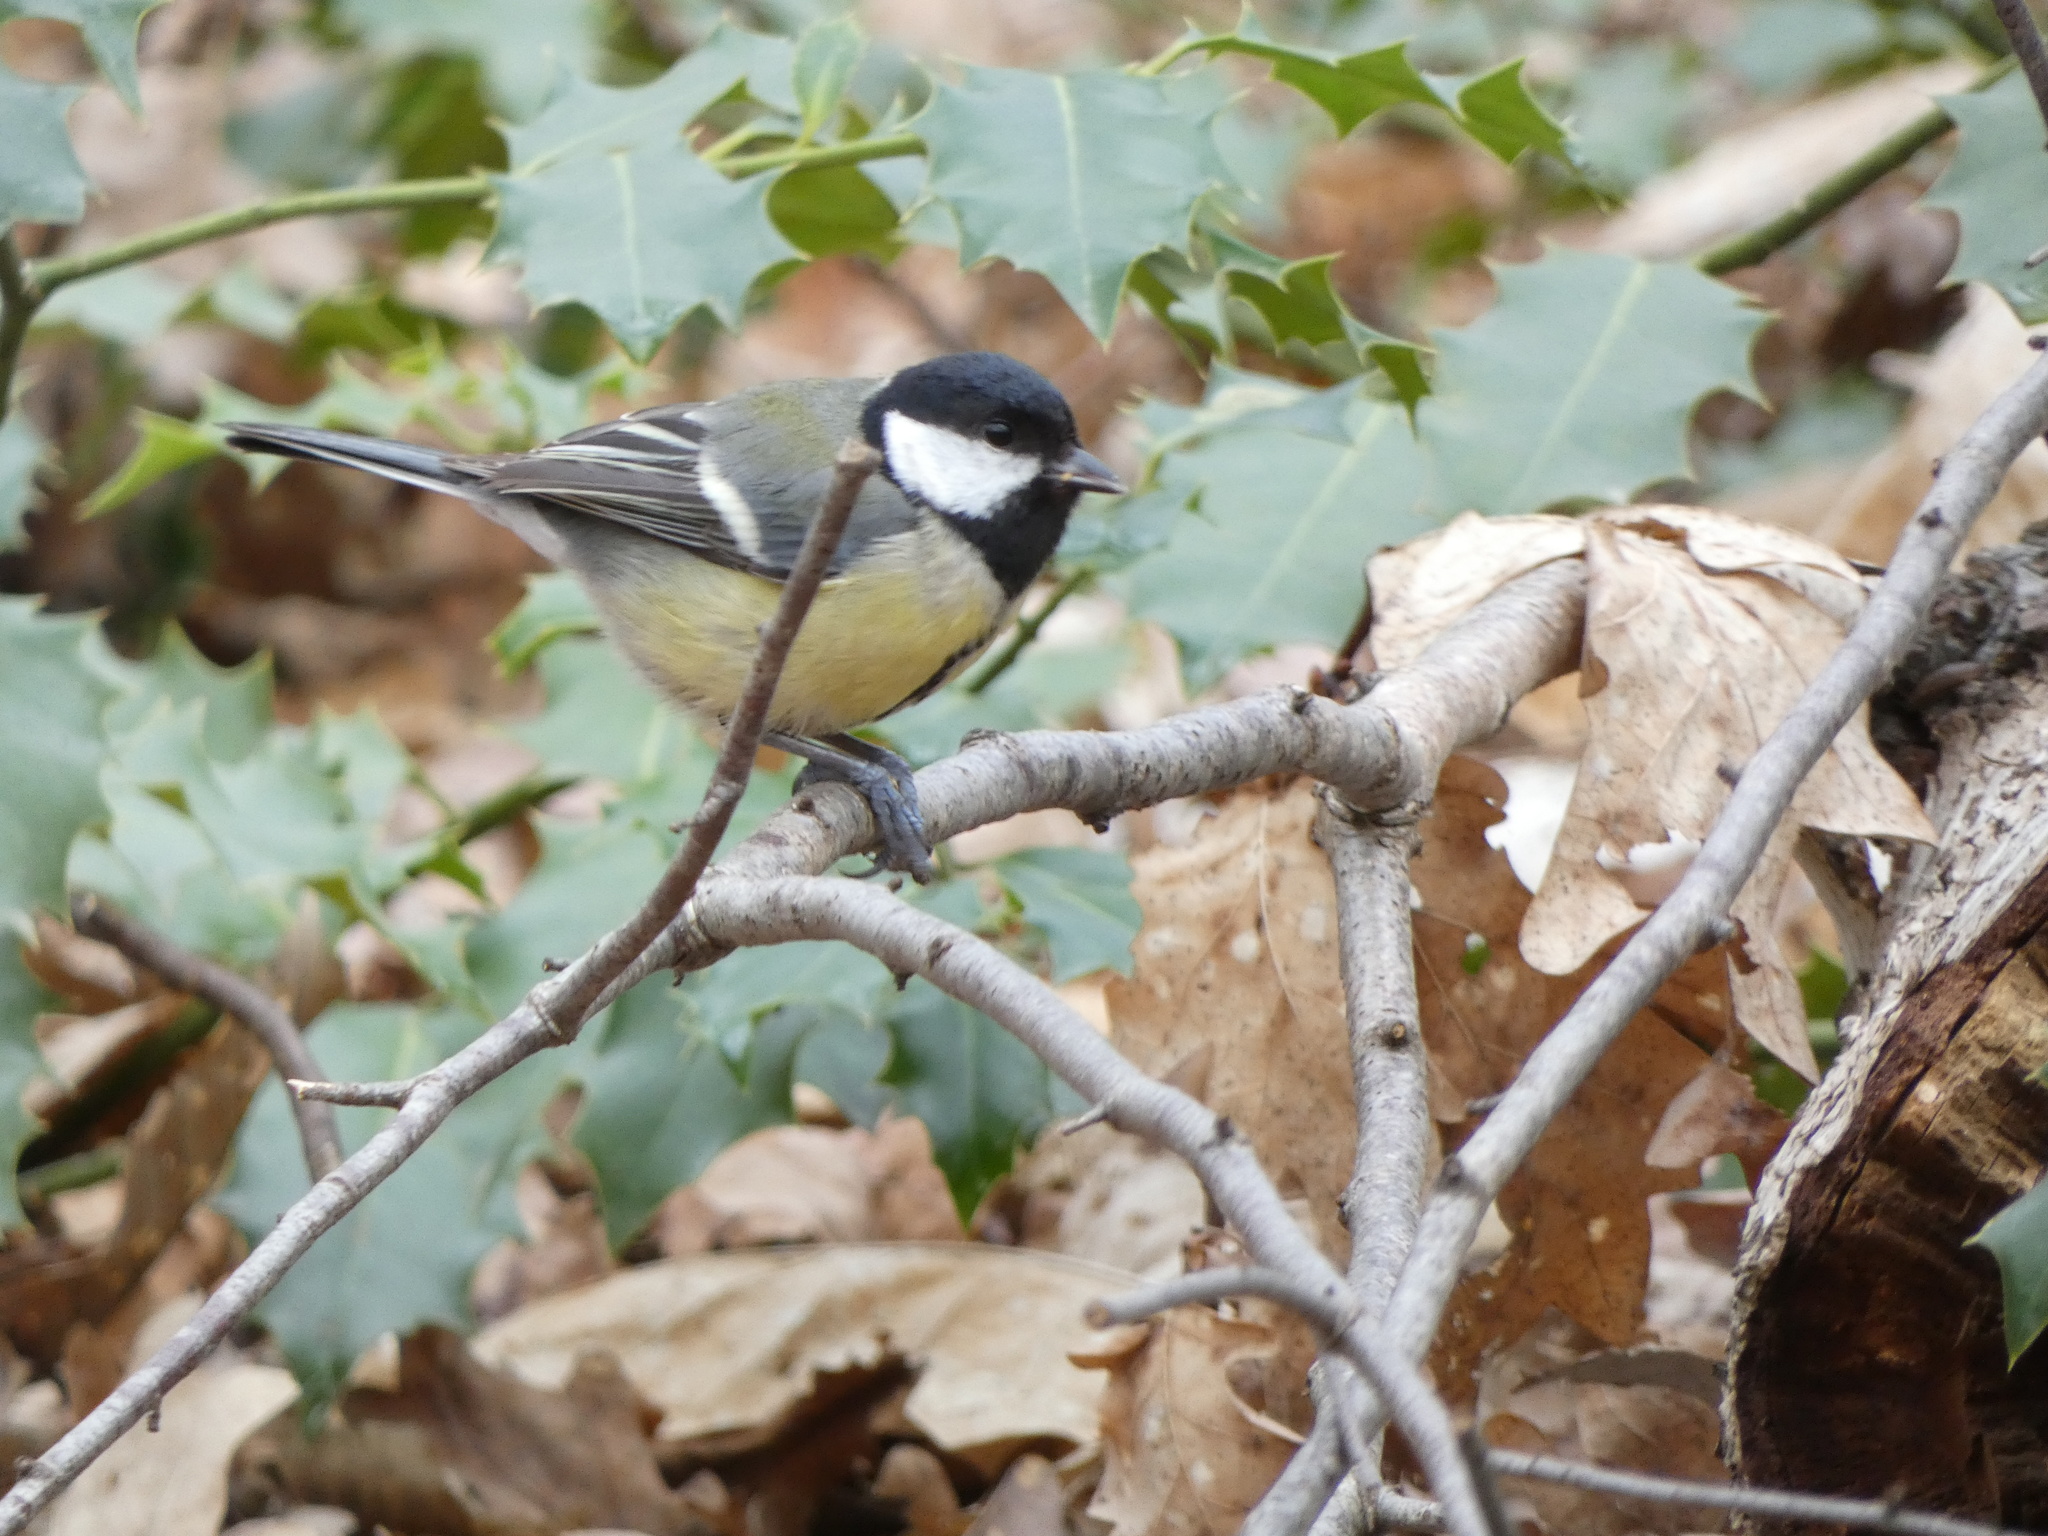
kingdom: Animalia
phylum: Chordata
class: Aves
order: Passeriformes
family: Paridae
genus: Parus
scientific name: Parus major
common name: Great tit
